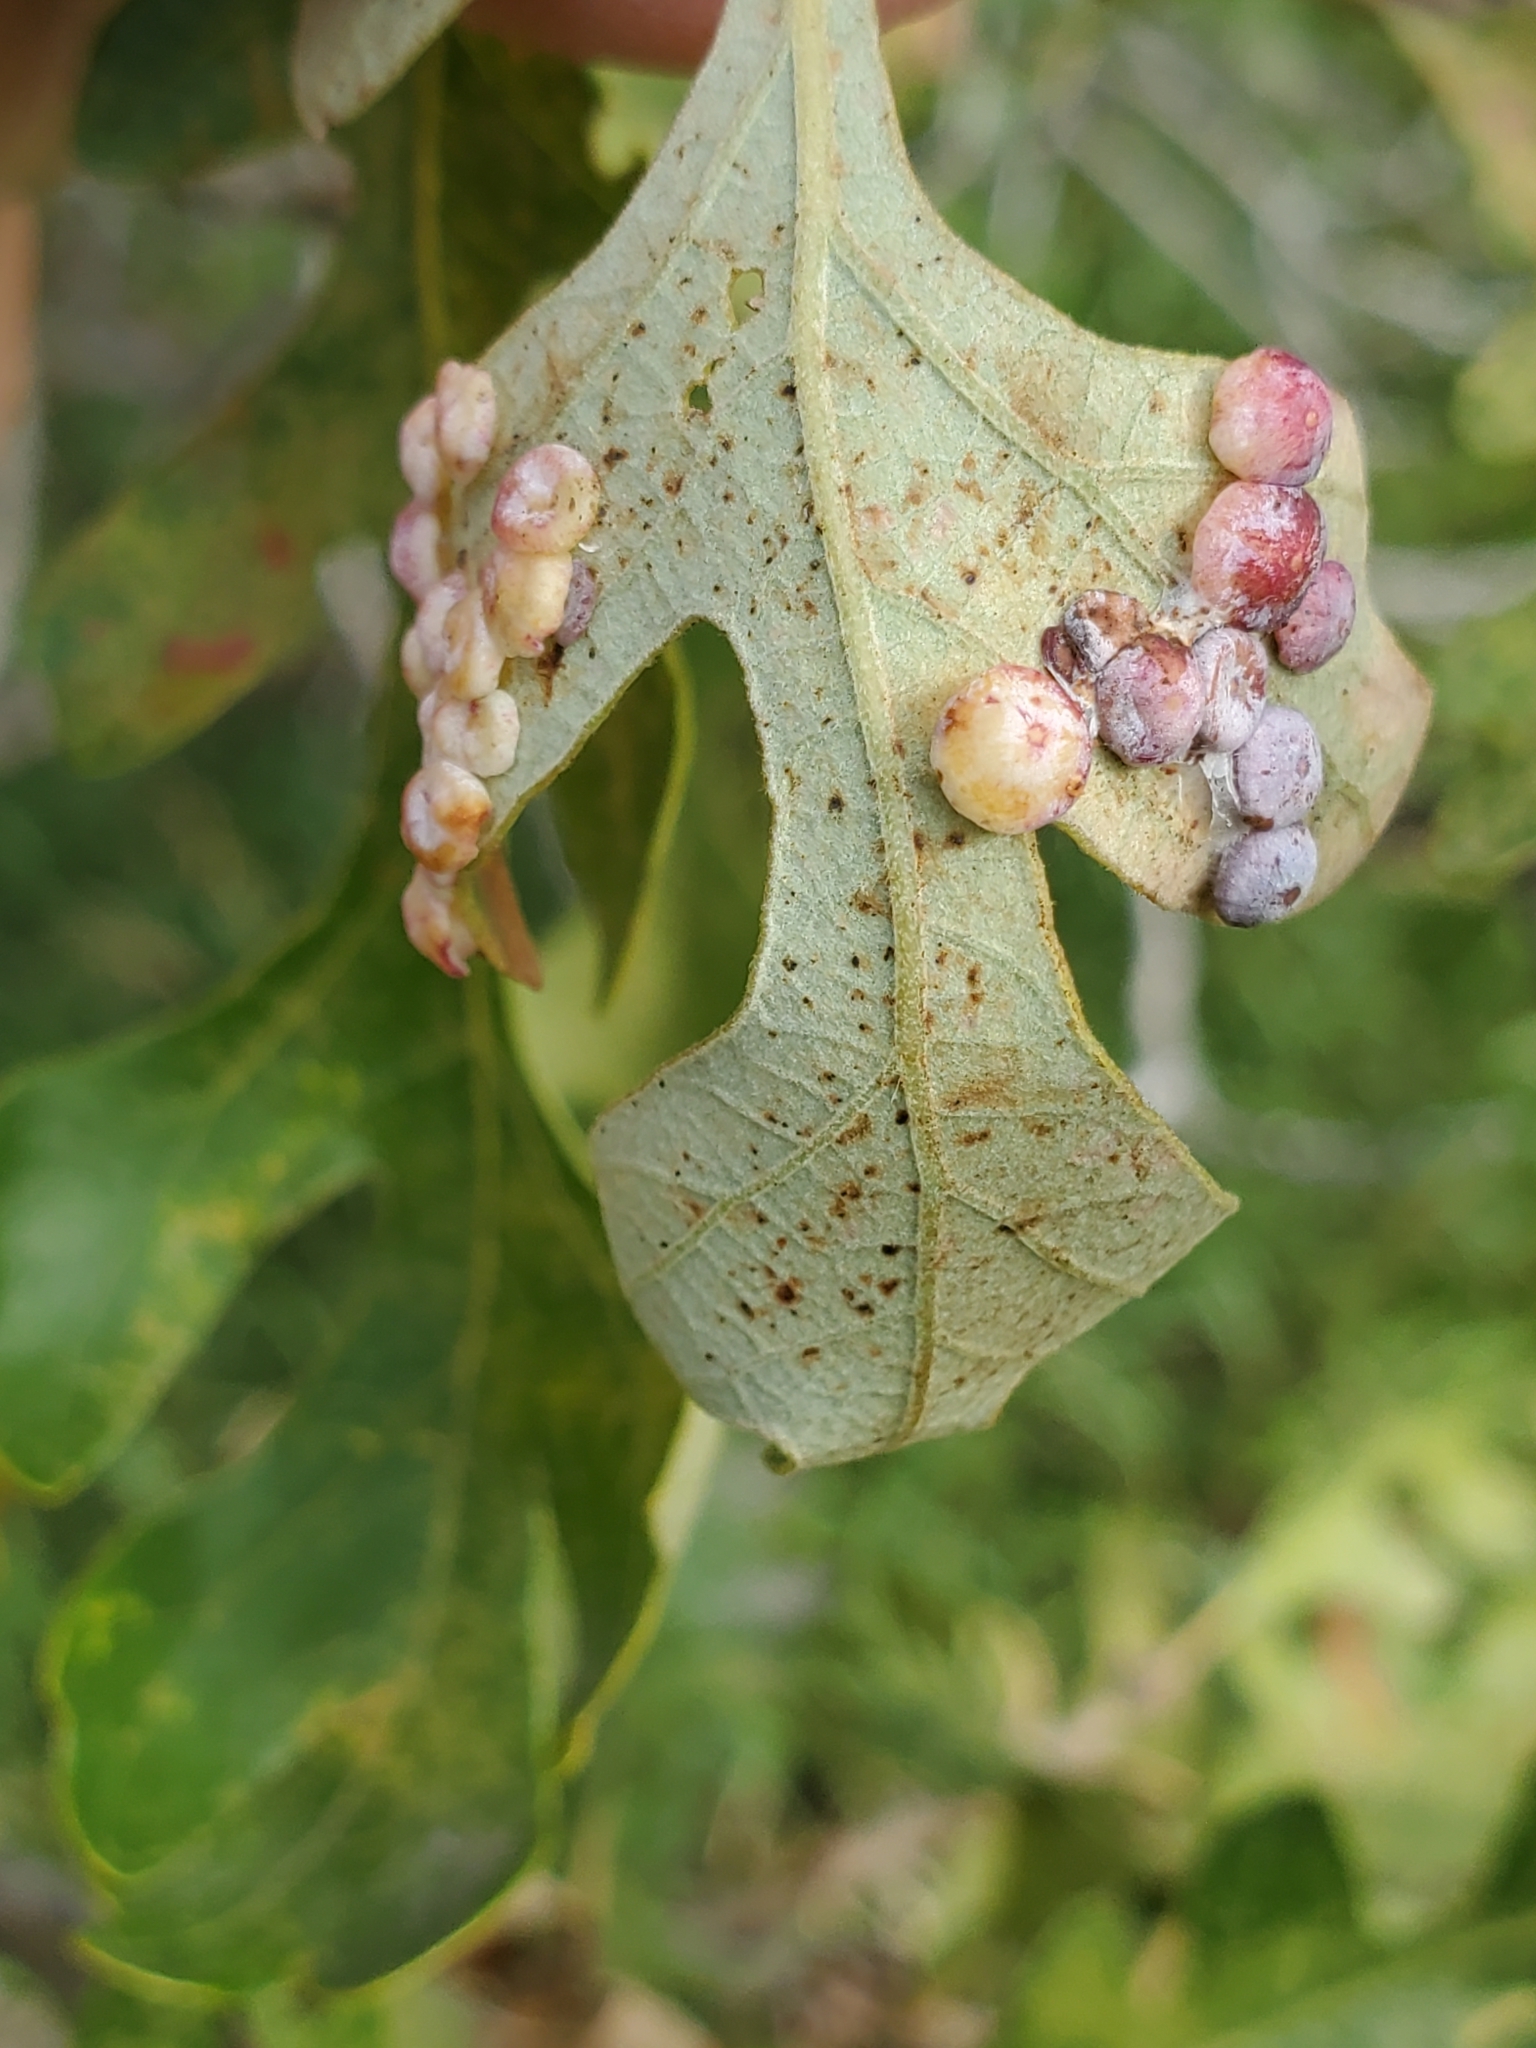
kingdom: Animalia
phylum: Arthropoda
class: Insecta
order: Hymenoptera
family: Cynipidae
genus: Phylloteras
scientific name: Phylloteras poculum
